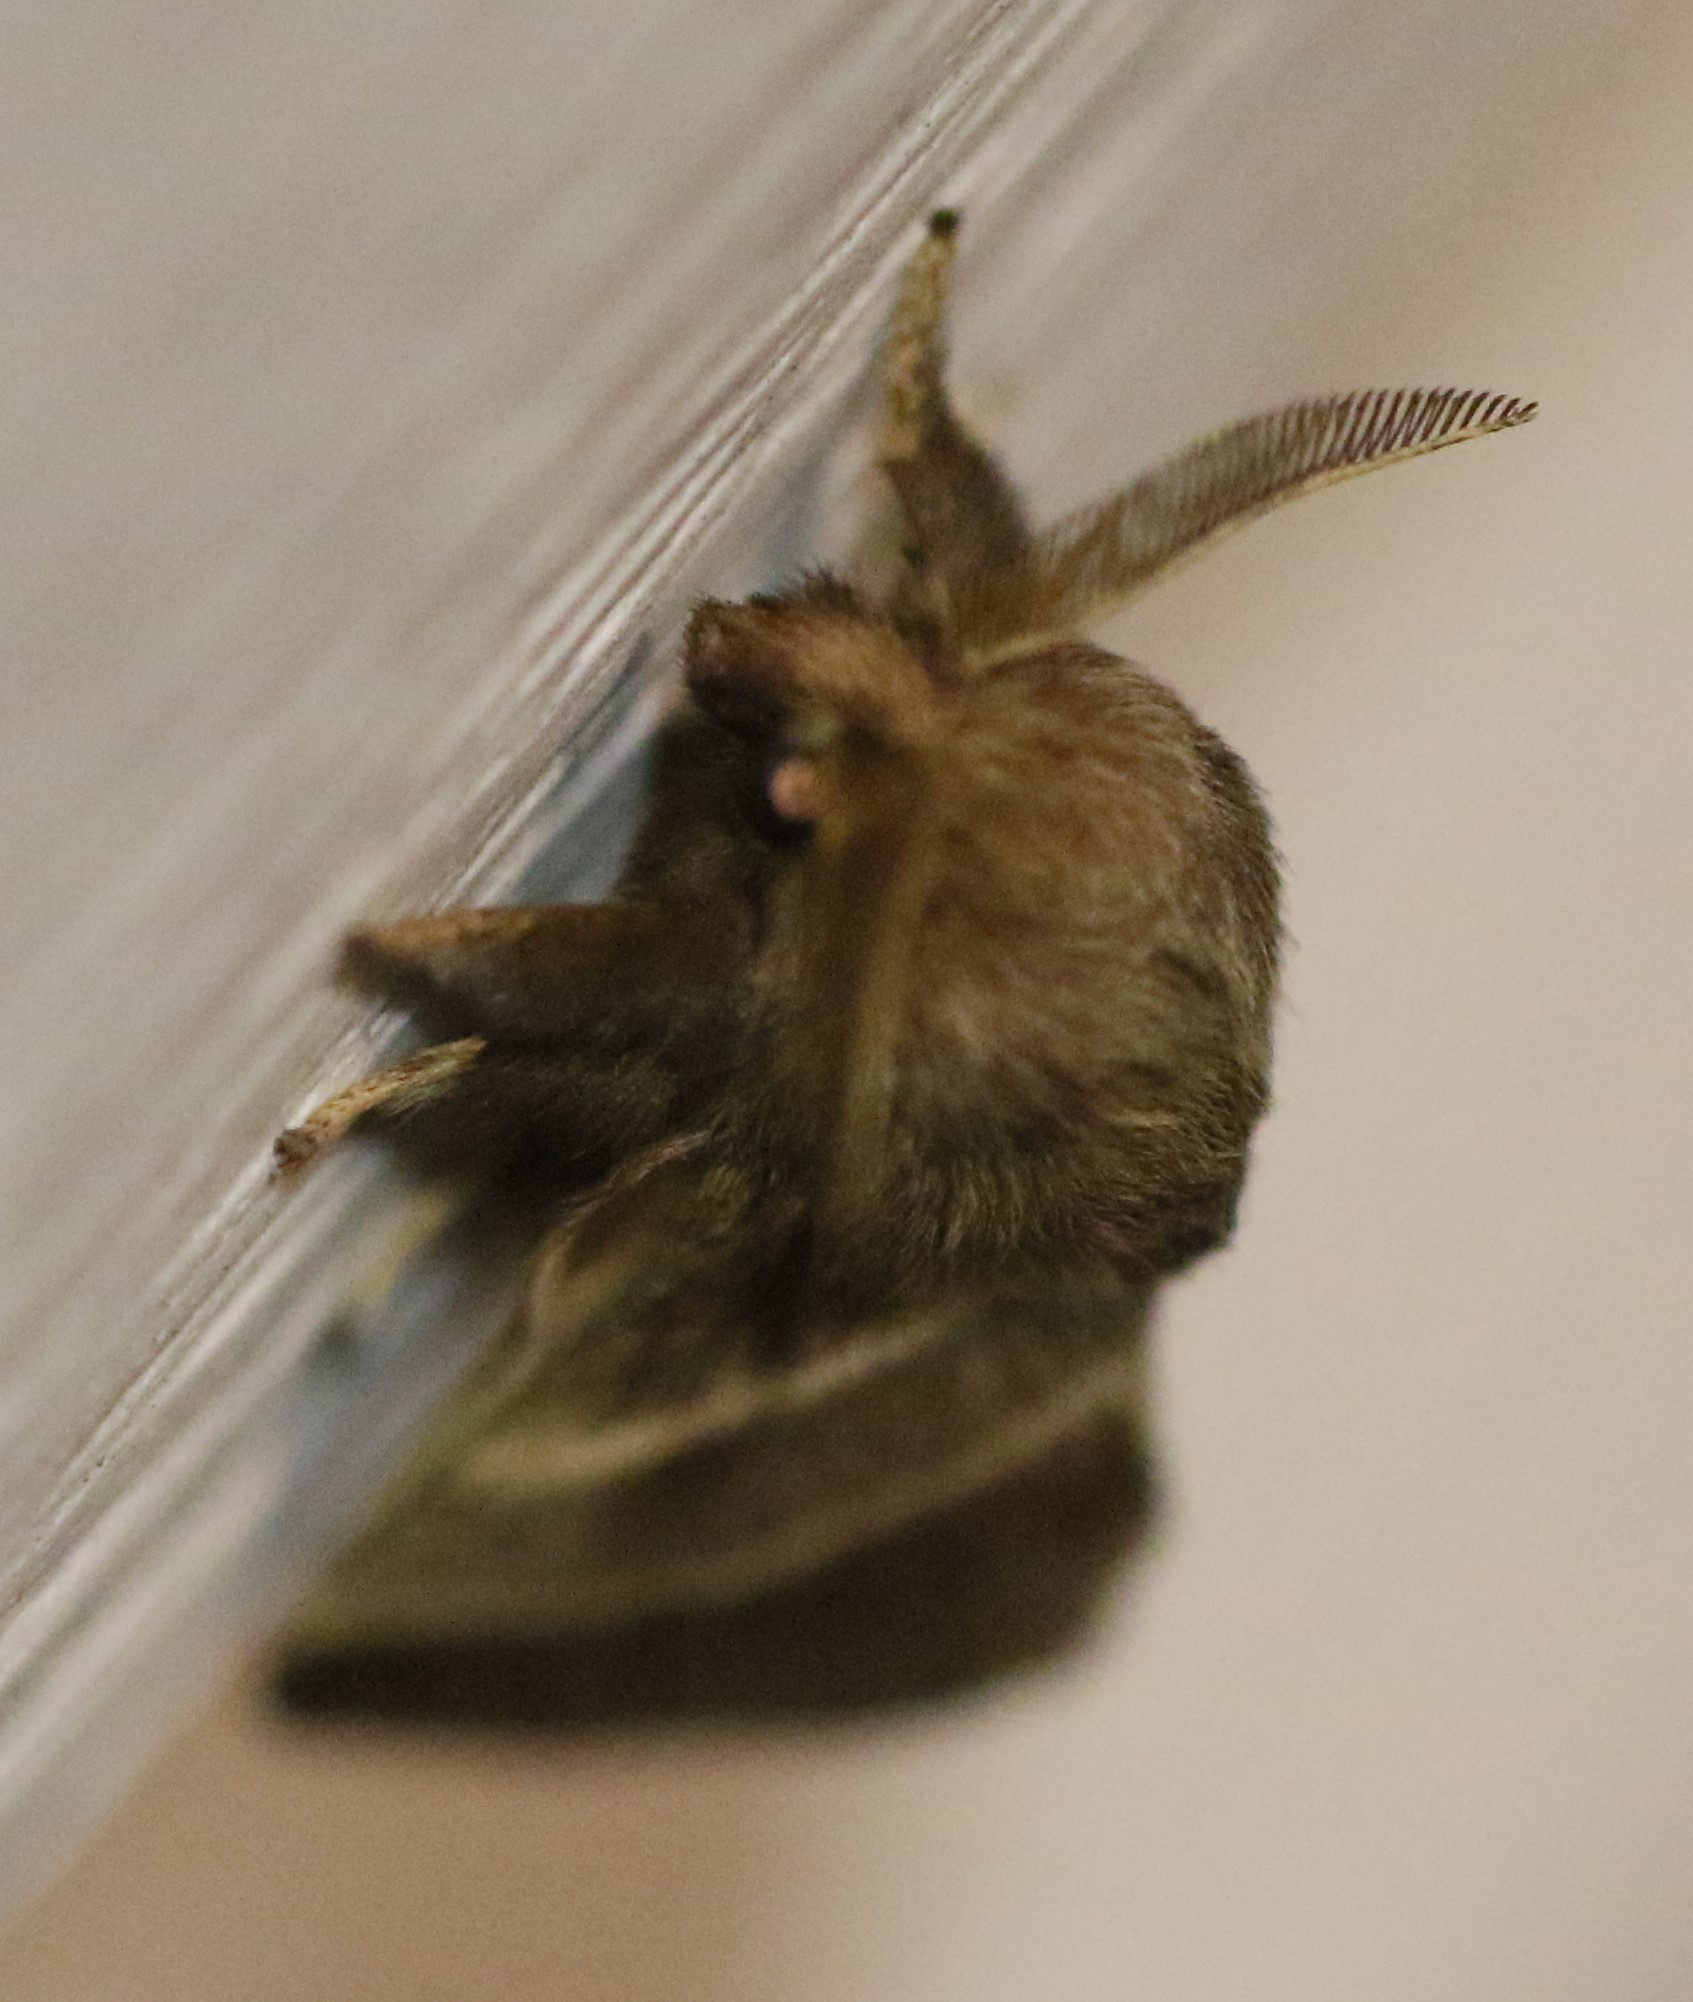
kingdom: Animalia
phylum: Arthropoda
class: Insecta
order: Lepidoptera
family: Lasiocampidae
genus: Malacosoma
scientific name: Malacosoma americana
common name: Eastern tent caterpillar moth
